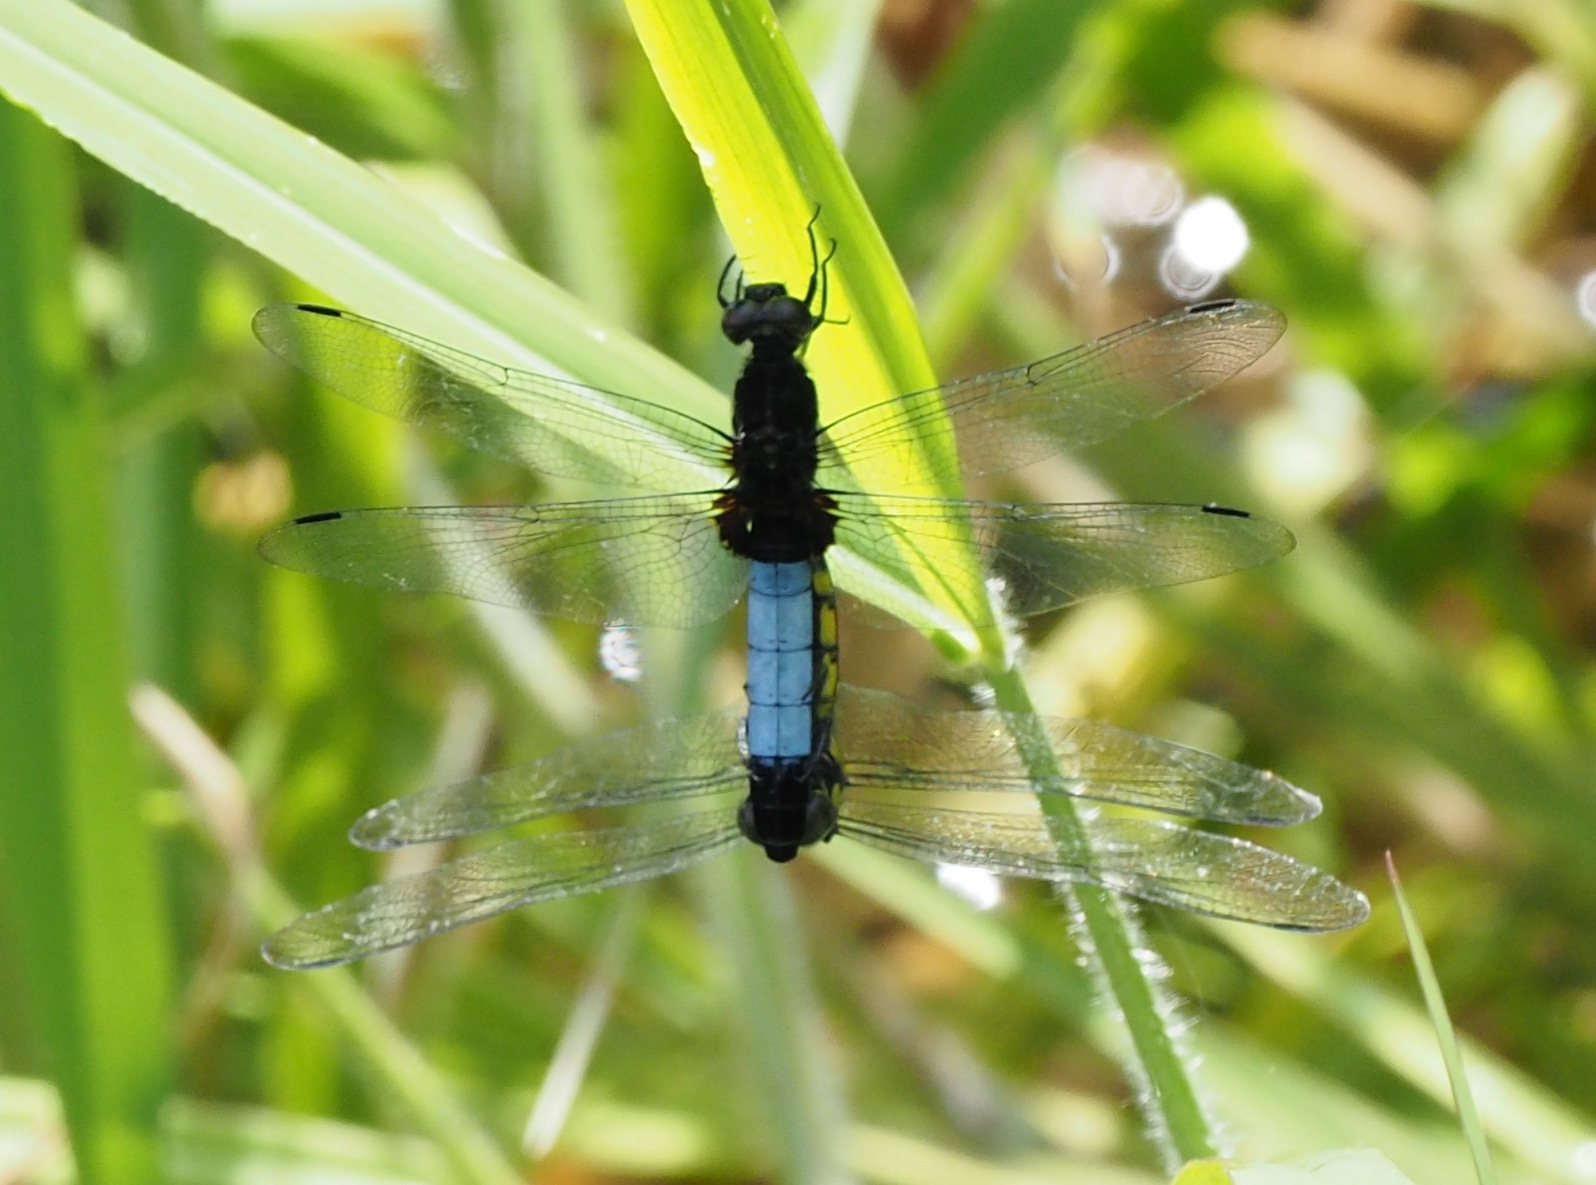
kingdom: Animalia
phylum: Arthropoda
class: Insecta
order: Odonata
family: Libellulidae
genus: Orthetrum
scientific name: Orthetrum triangulare
